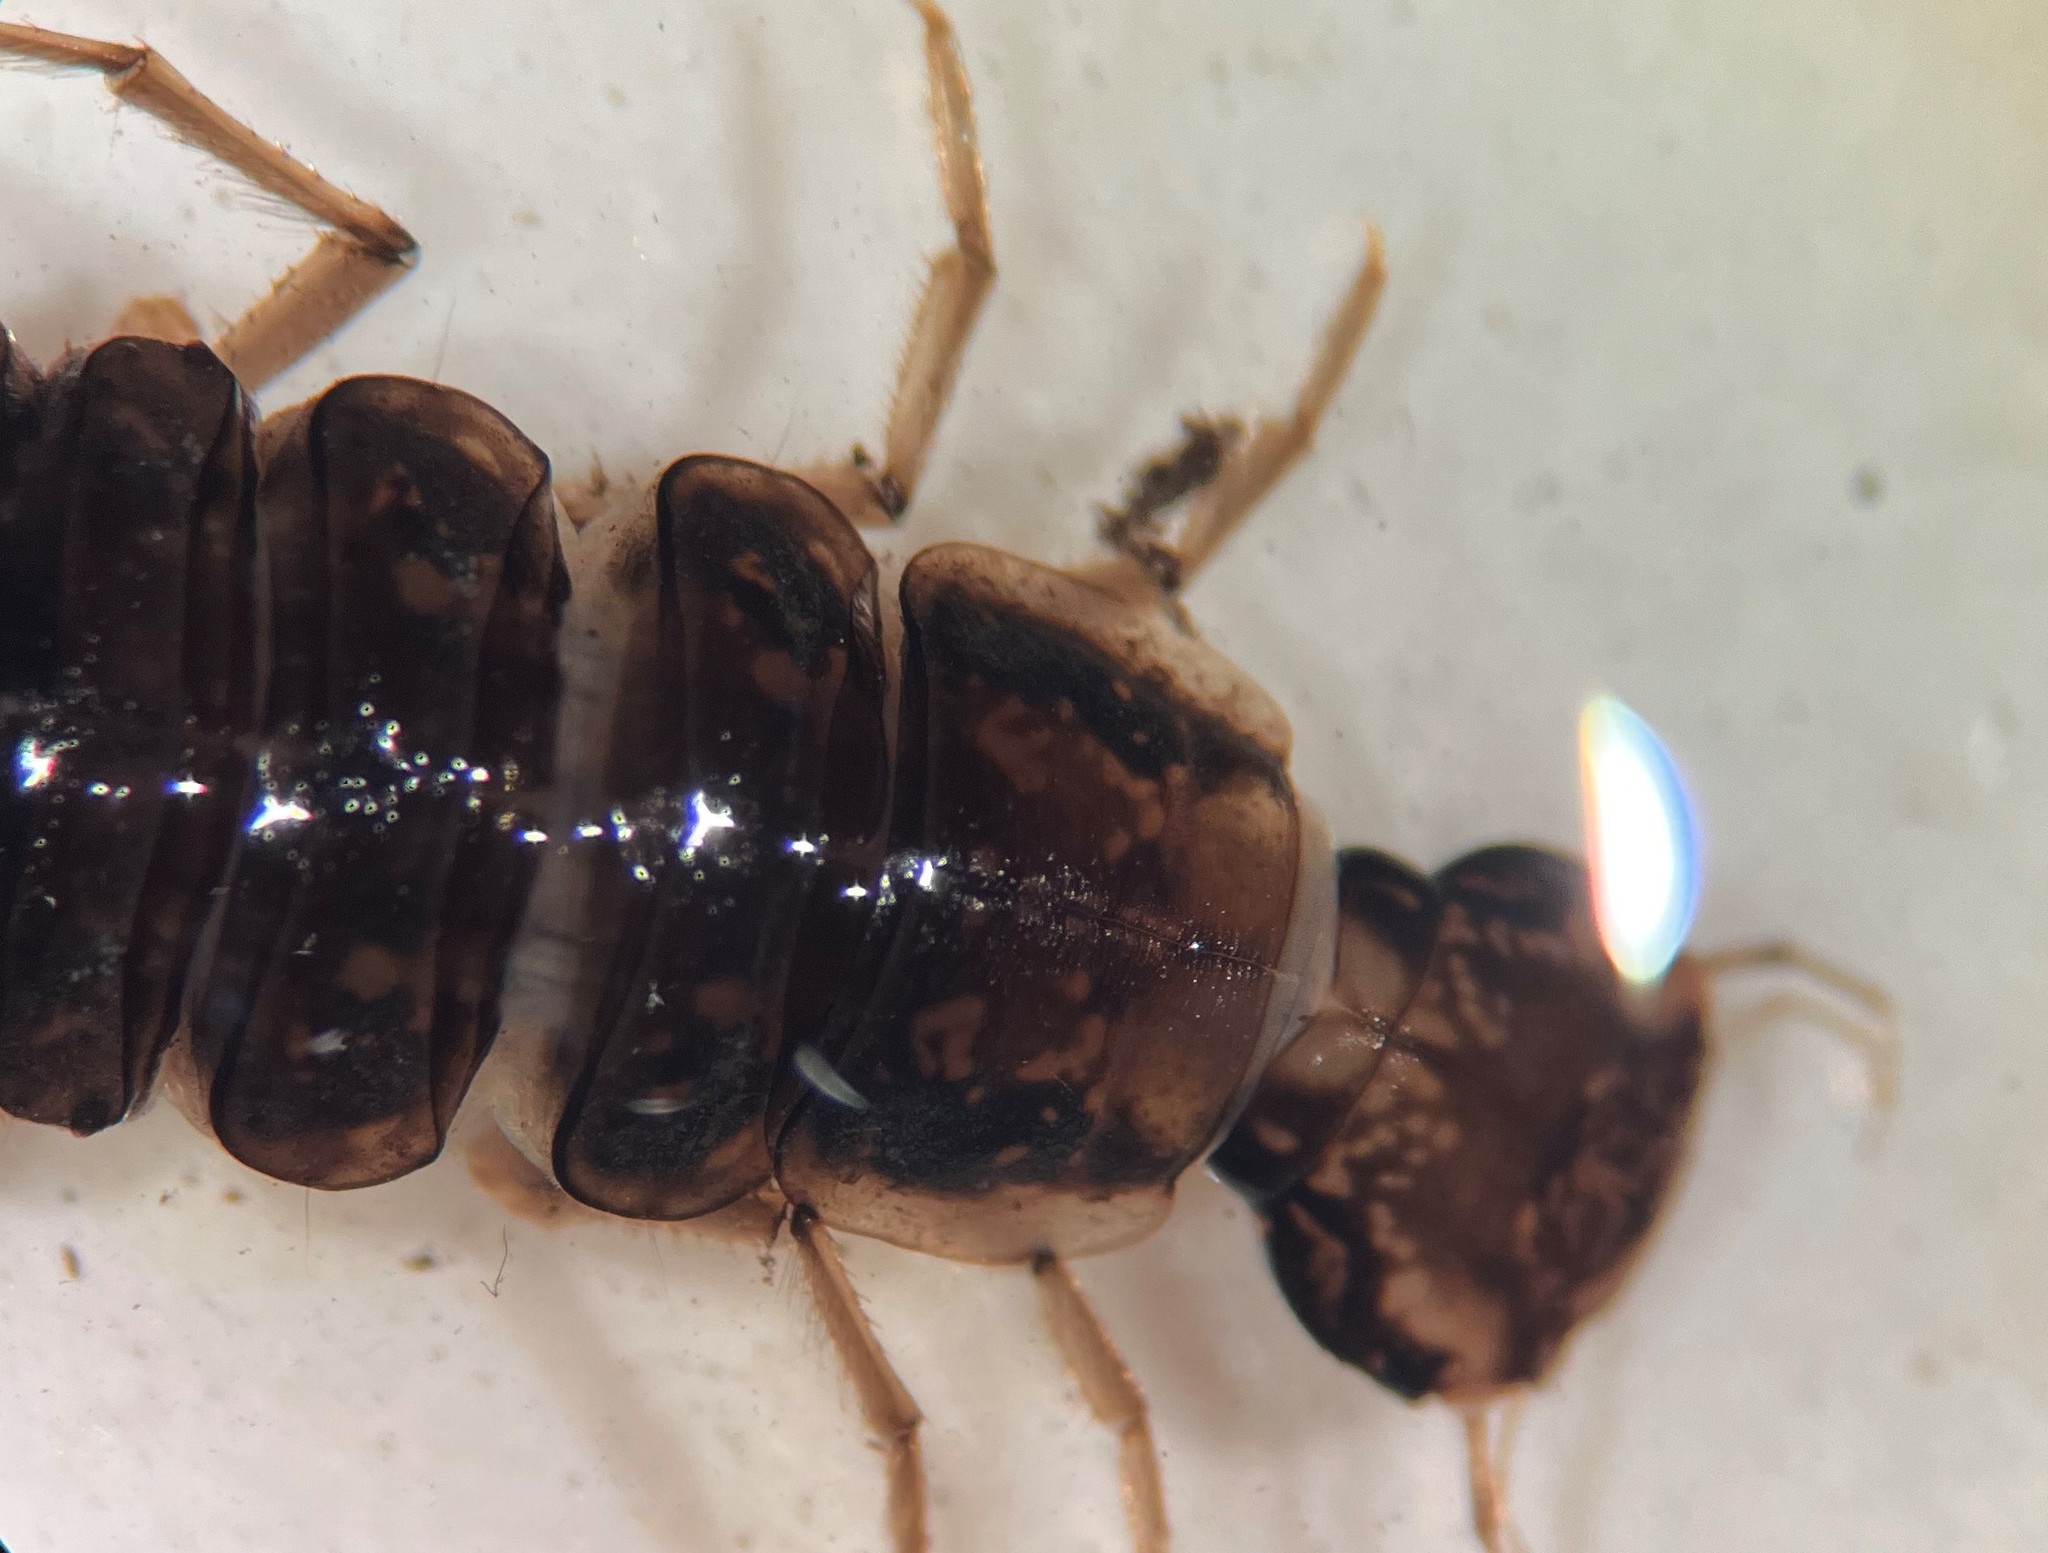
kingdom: Animalia
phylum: Arthropoda
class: Insecta
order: Coleoptera
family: Dytiscidae
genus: Meridiorhantus
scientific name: Meridiorhantus calidus
